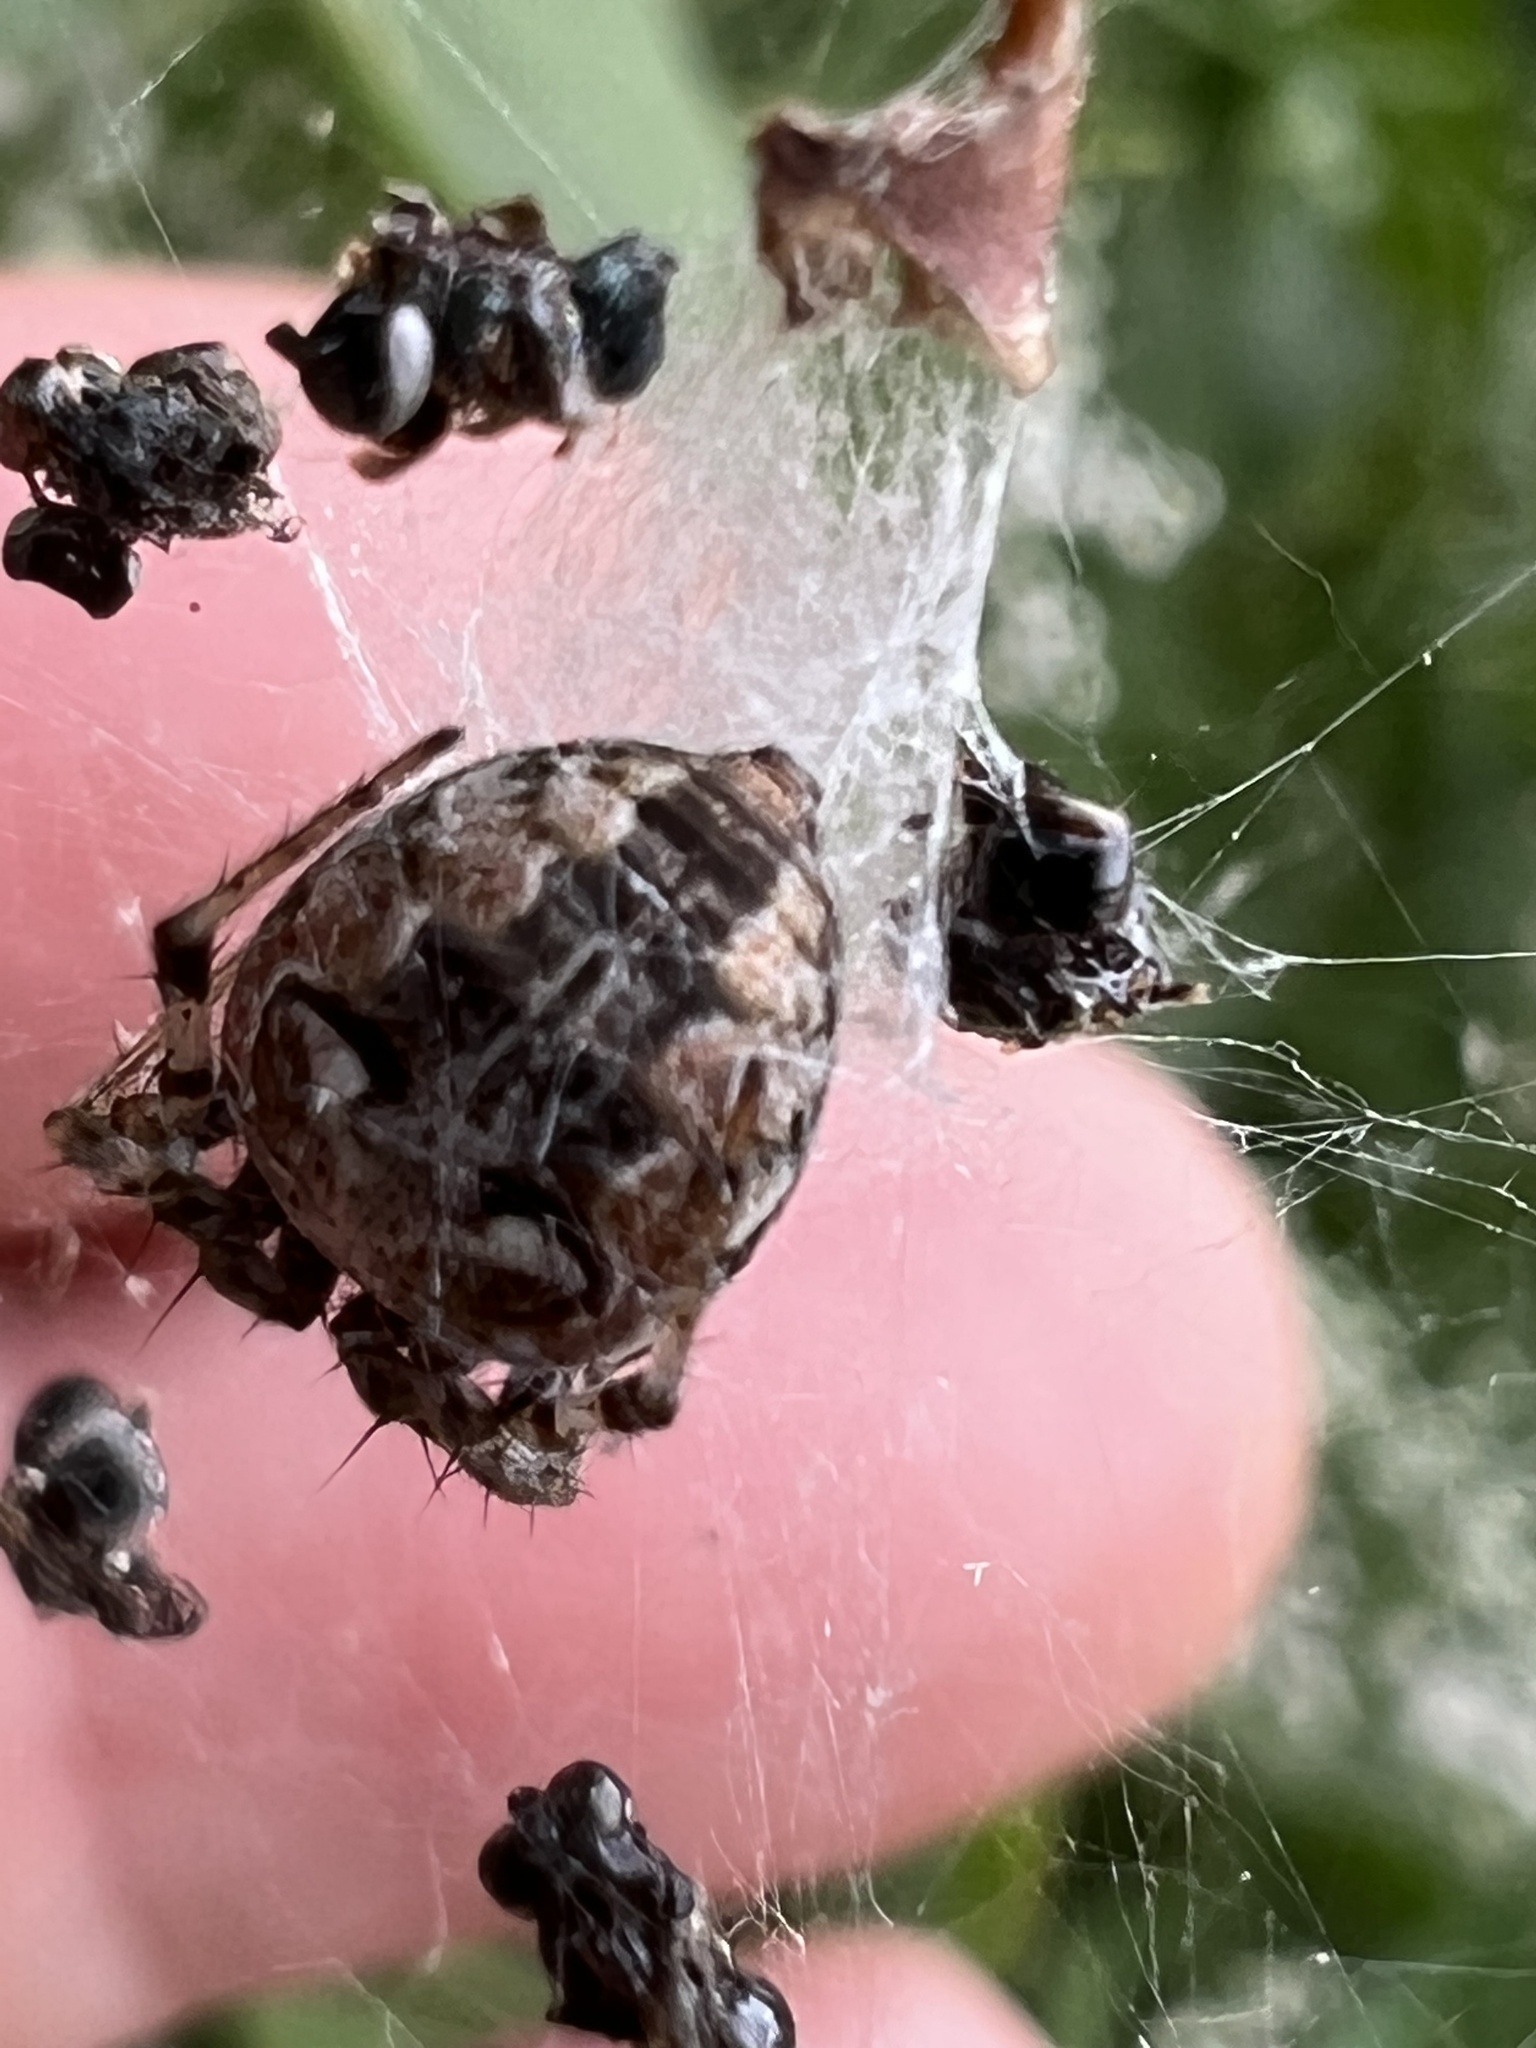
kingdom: Animalia
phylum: Arthropoda
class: Arachnida
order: Araneae
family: Araneidae
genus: Metepeira
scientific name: Metepeira labyrinthea
